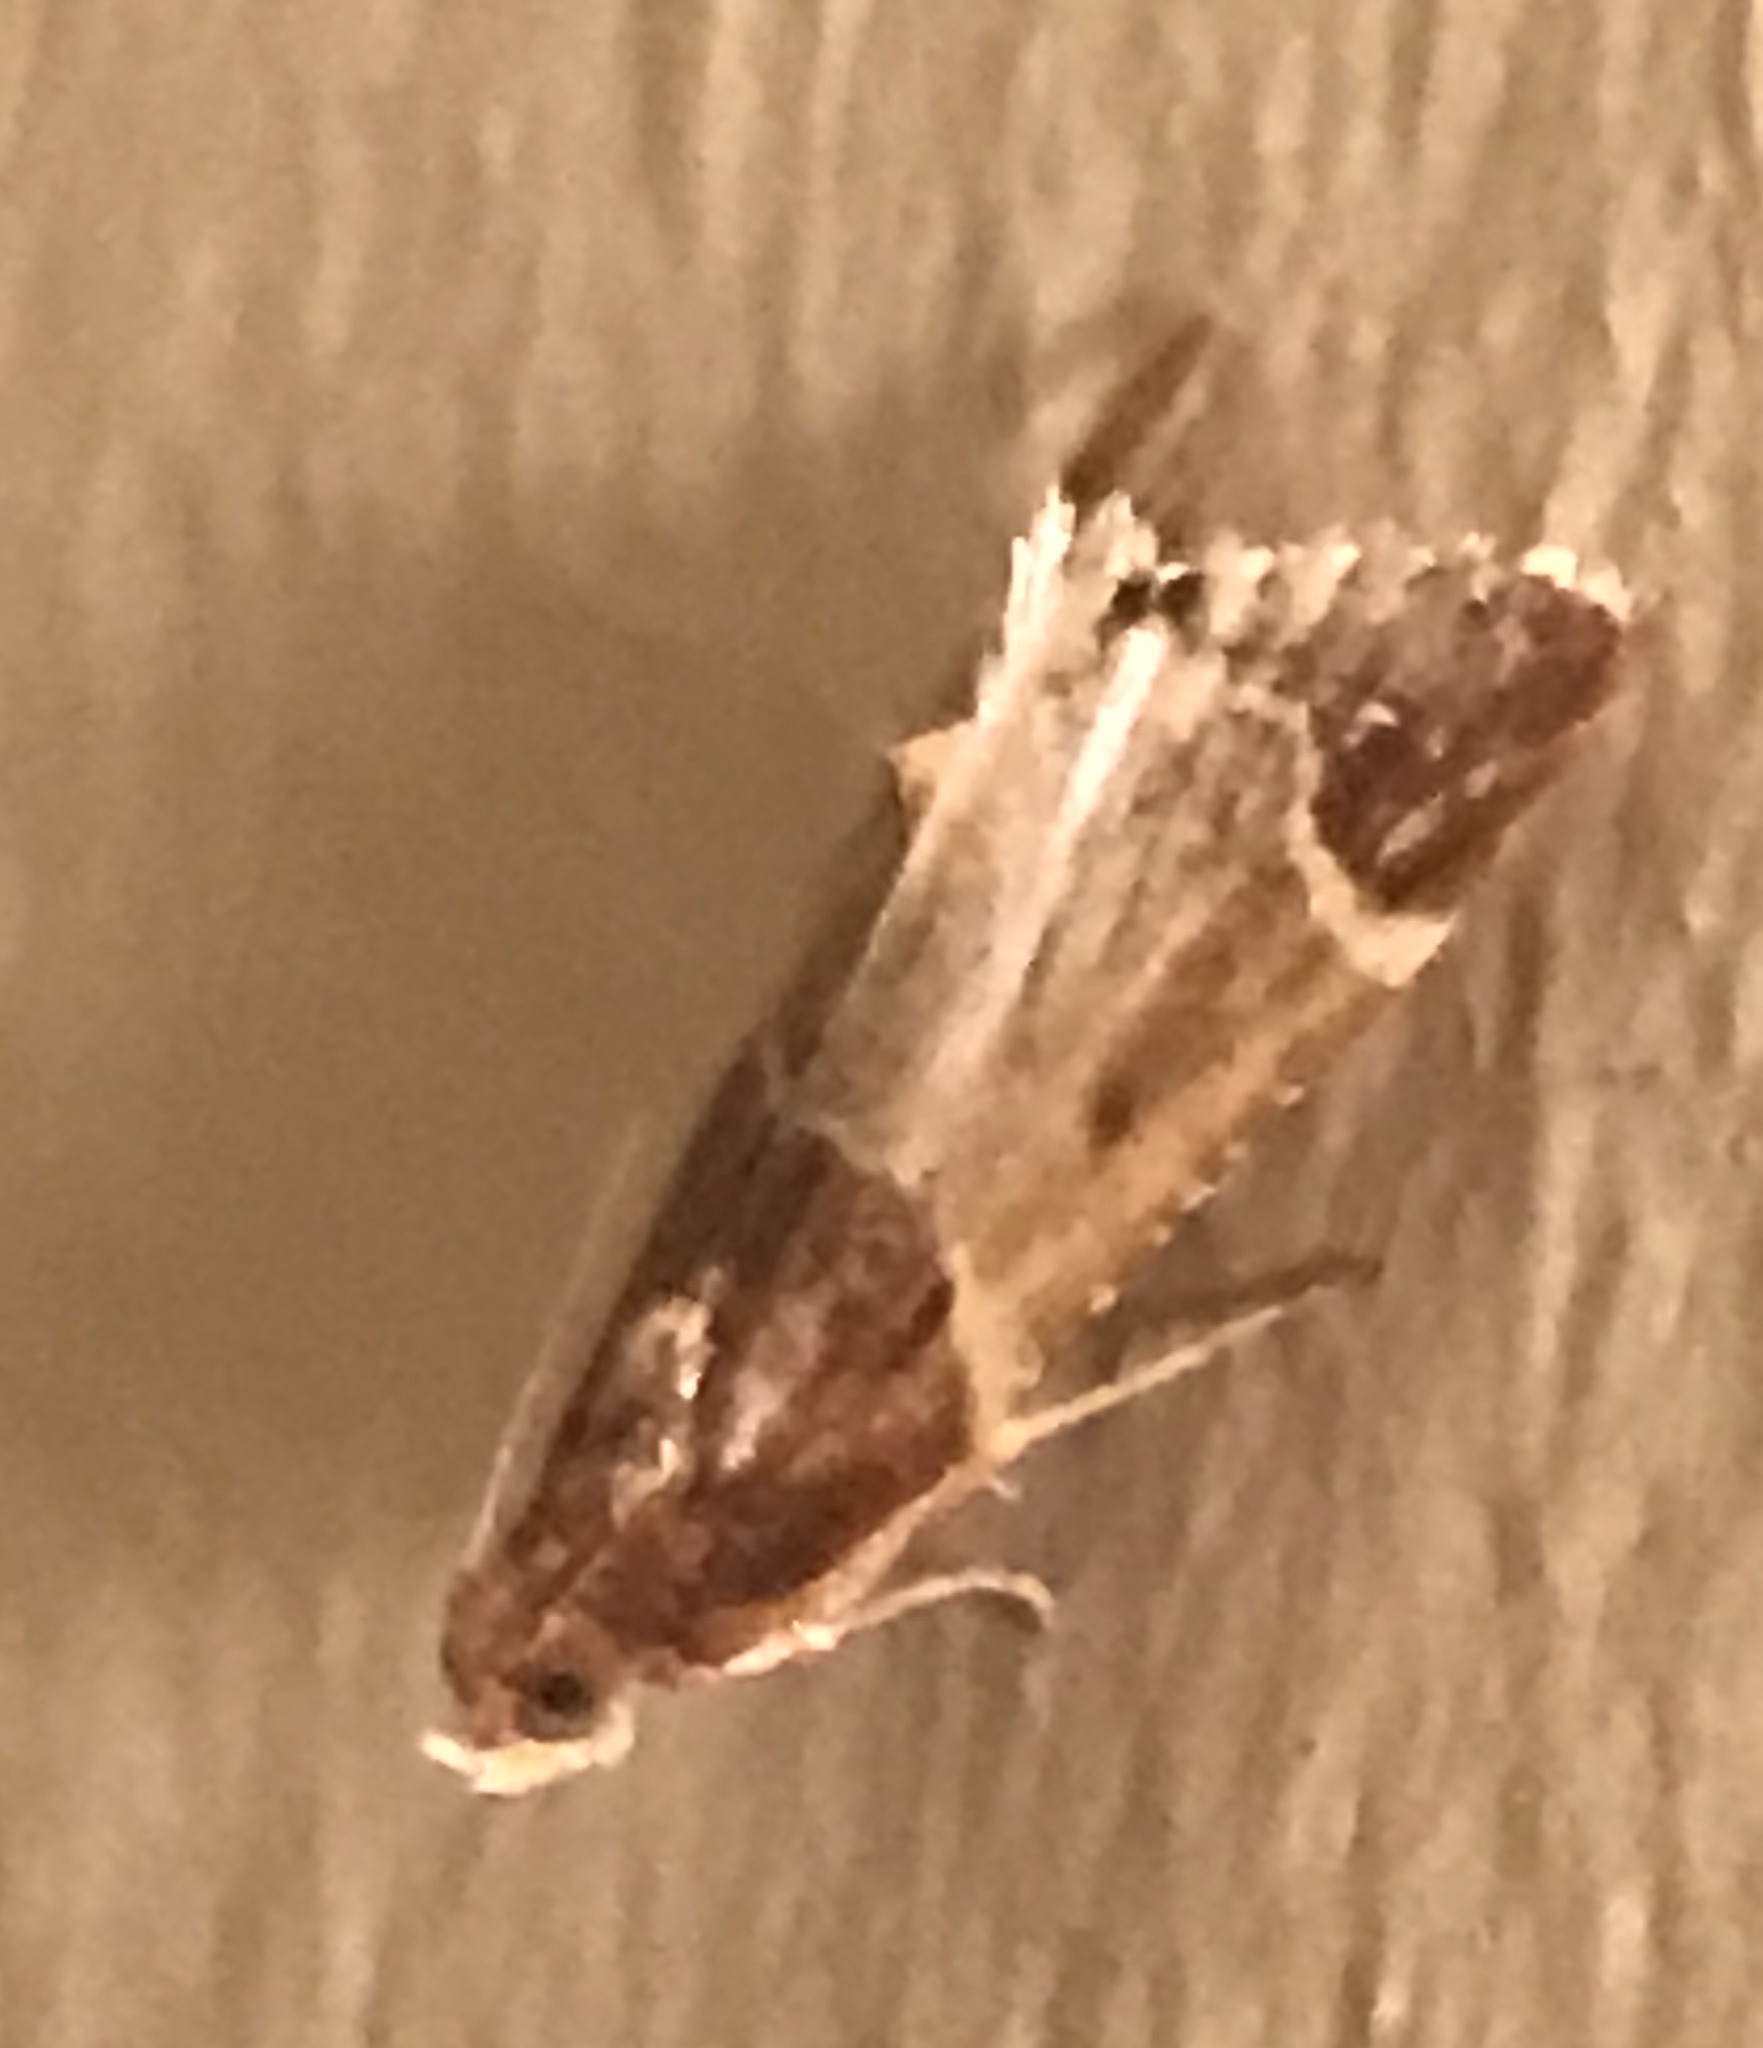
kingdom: Animalia
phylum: Arthropoda
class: Insecta
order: Lepidoptera
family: Pyralidae
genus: Pyralis
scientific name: Pyralis farinalis
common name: Meal moth
